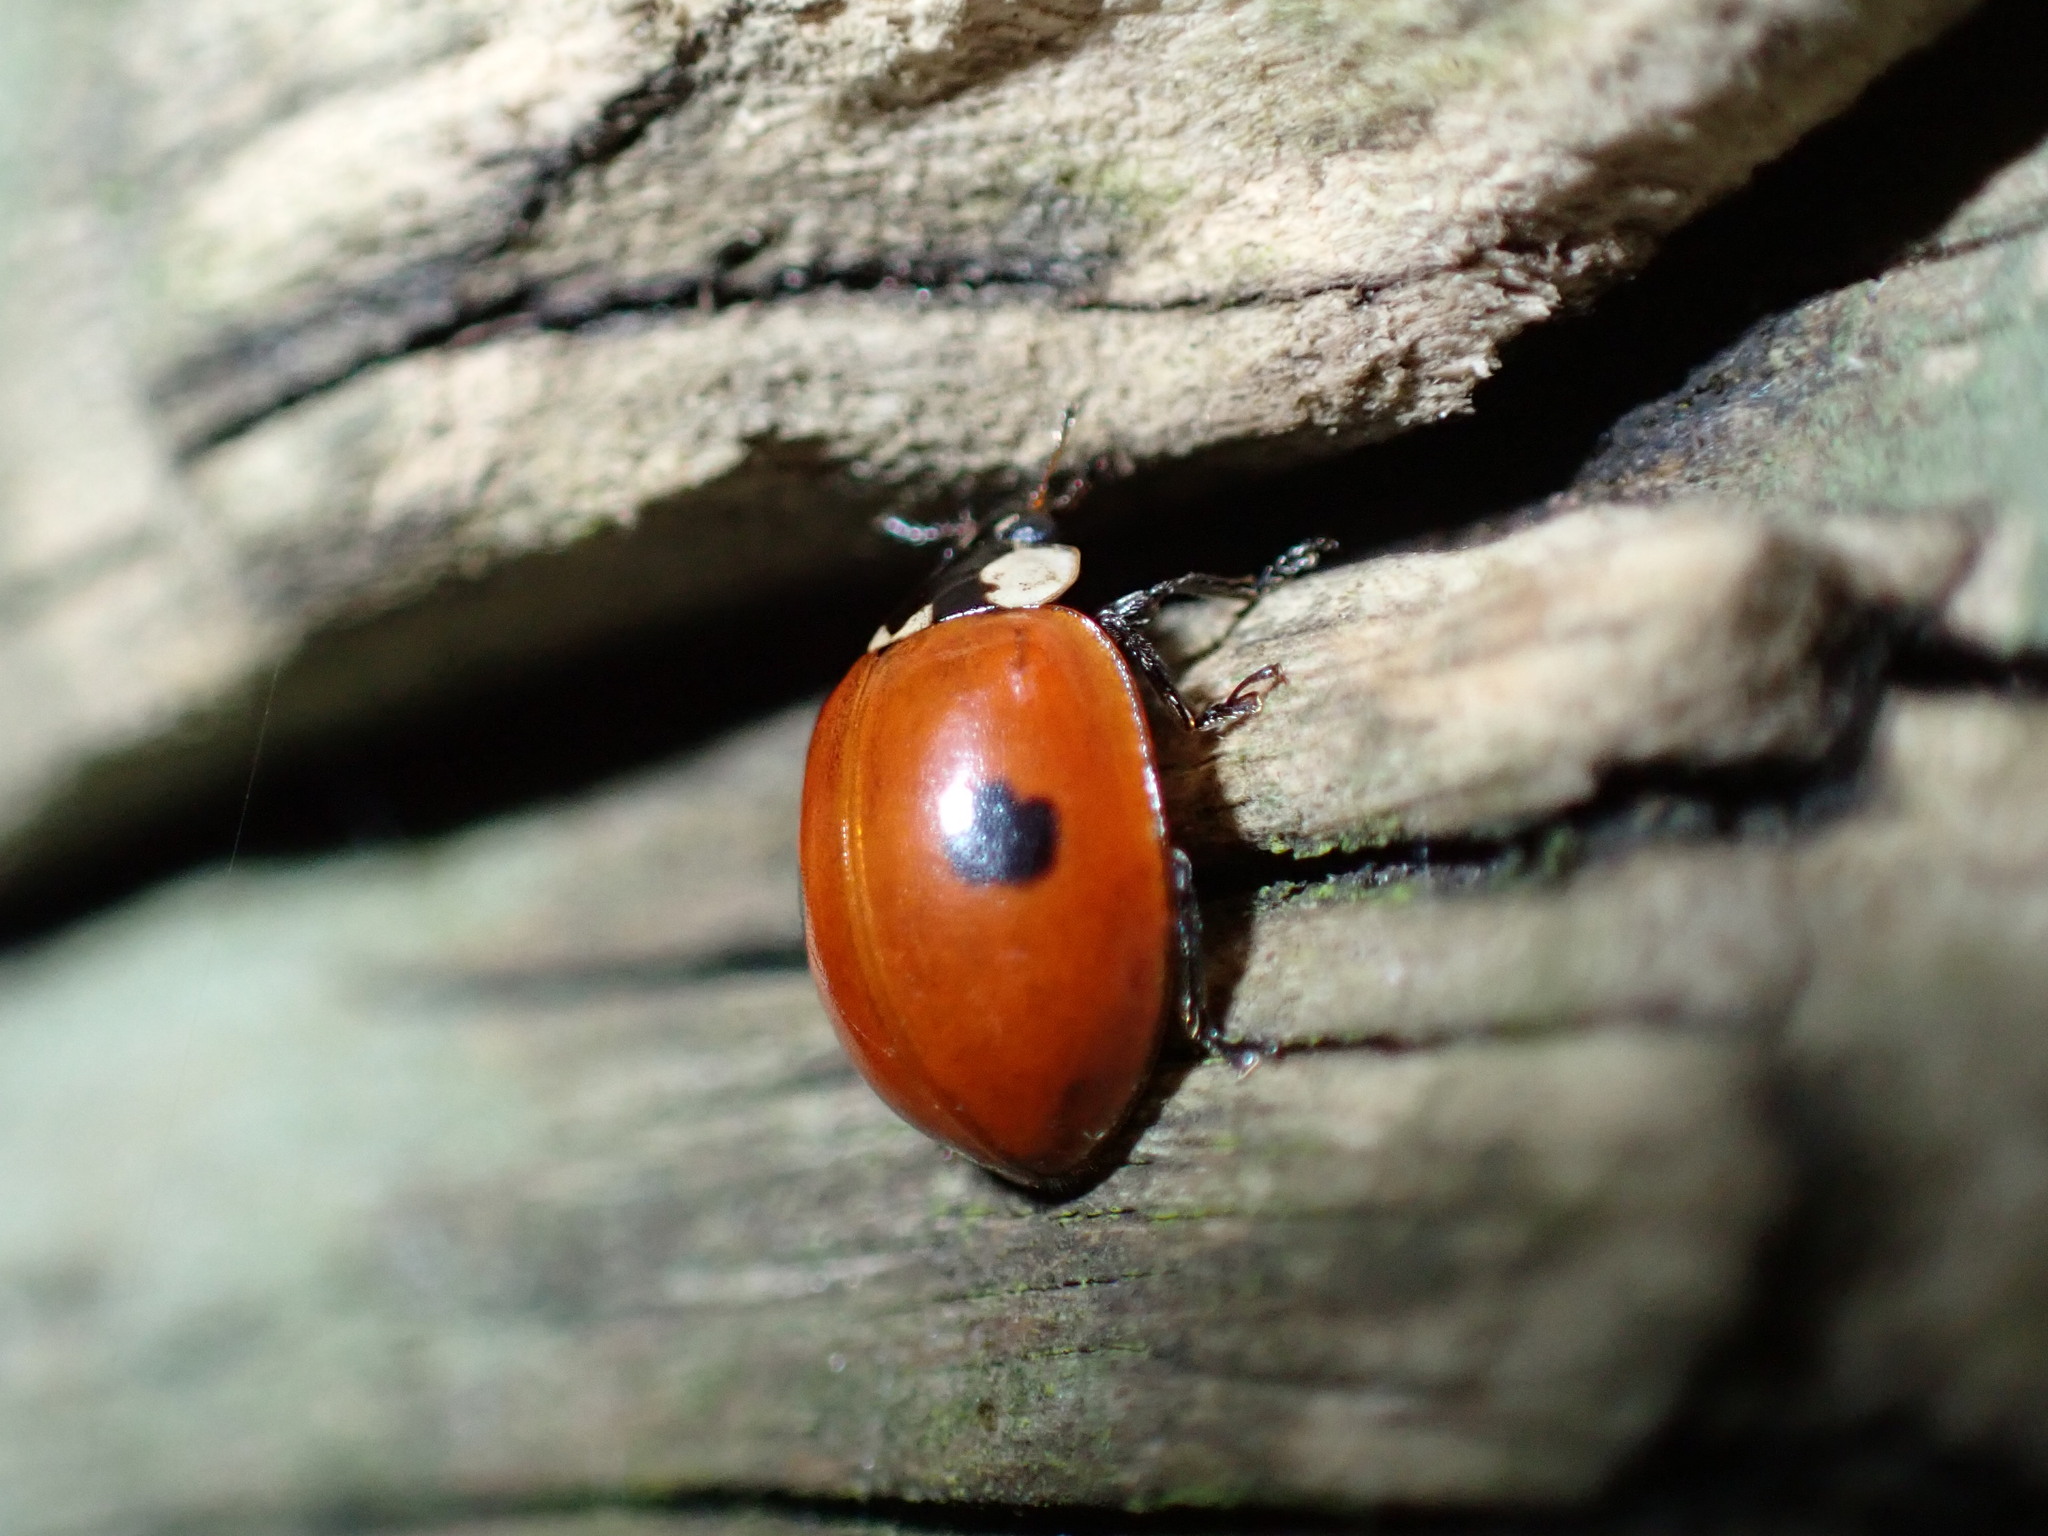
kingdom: Animalia
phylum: Arthropoda
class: Insecta
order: Coleoptera
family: Coccinellidae
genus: Adalia
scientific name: Adalia bipunctata
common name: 2-spot ladybird
